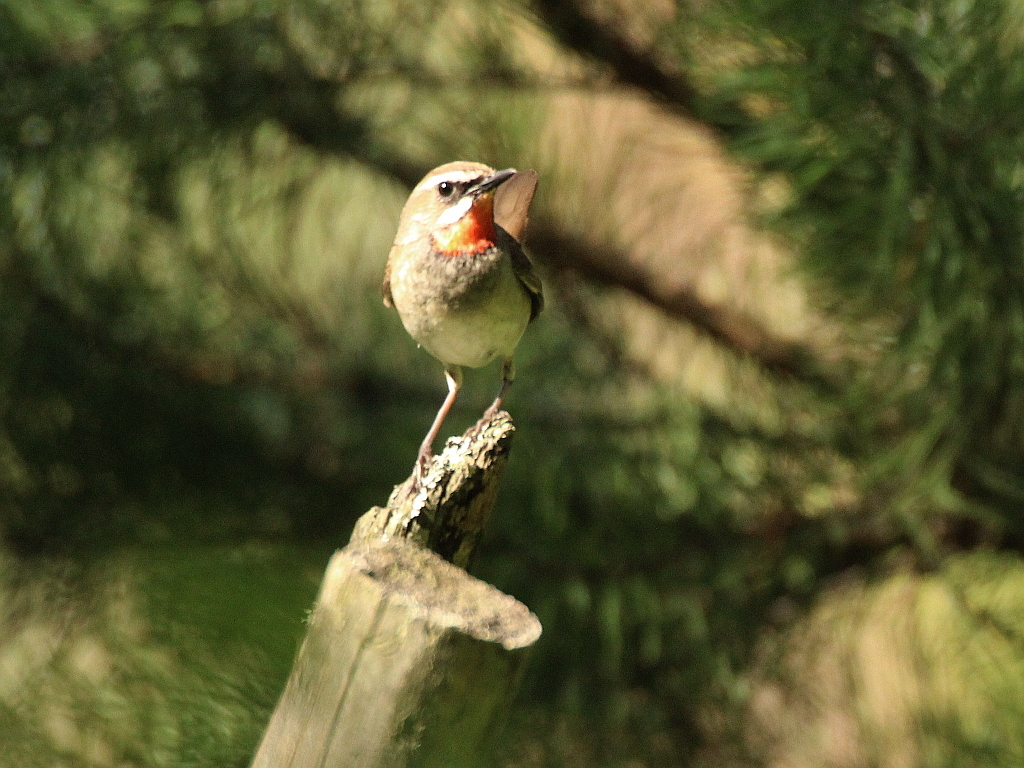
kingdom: Animalia
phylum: Chordata
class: Aves
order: Passeriformes
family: Muscicapidae
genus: Luscinia
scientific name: Luscinia calliope
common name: Siberian rubythroat
